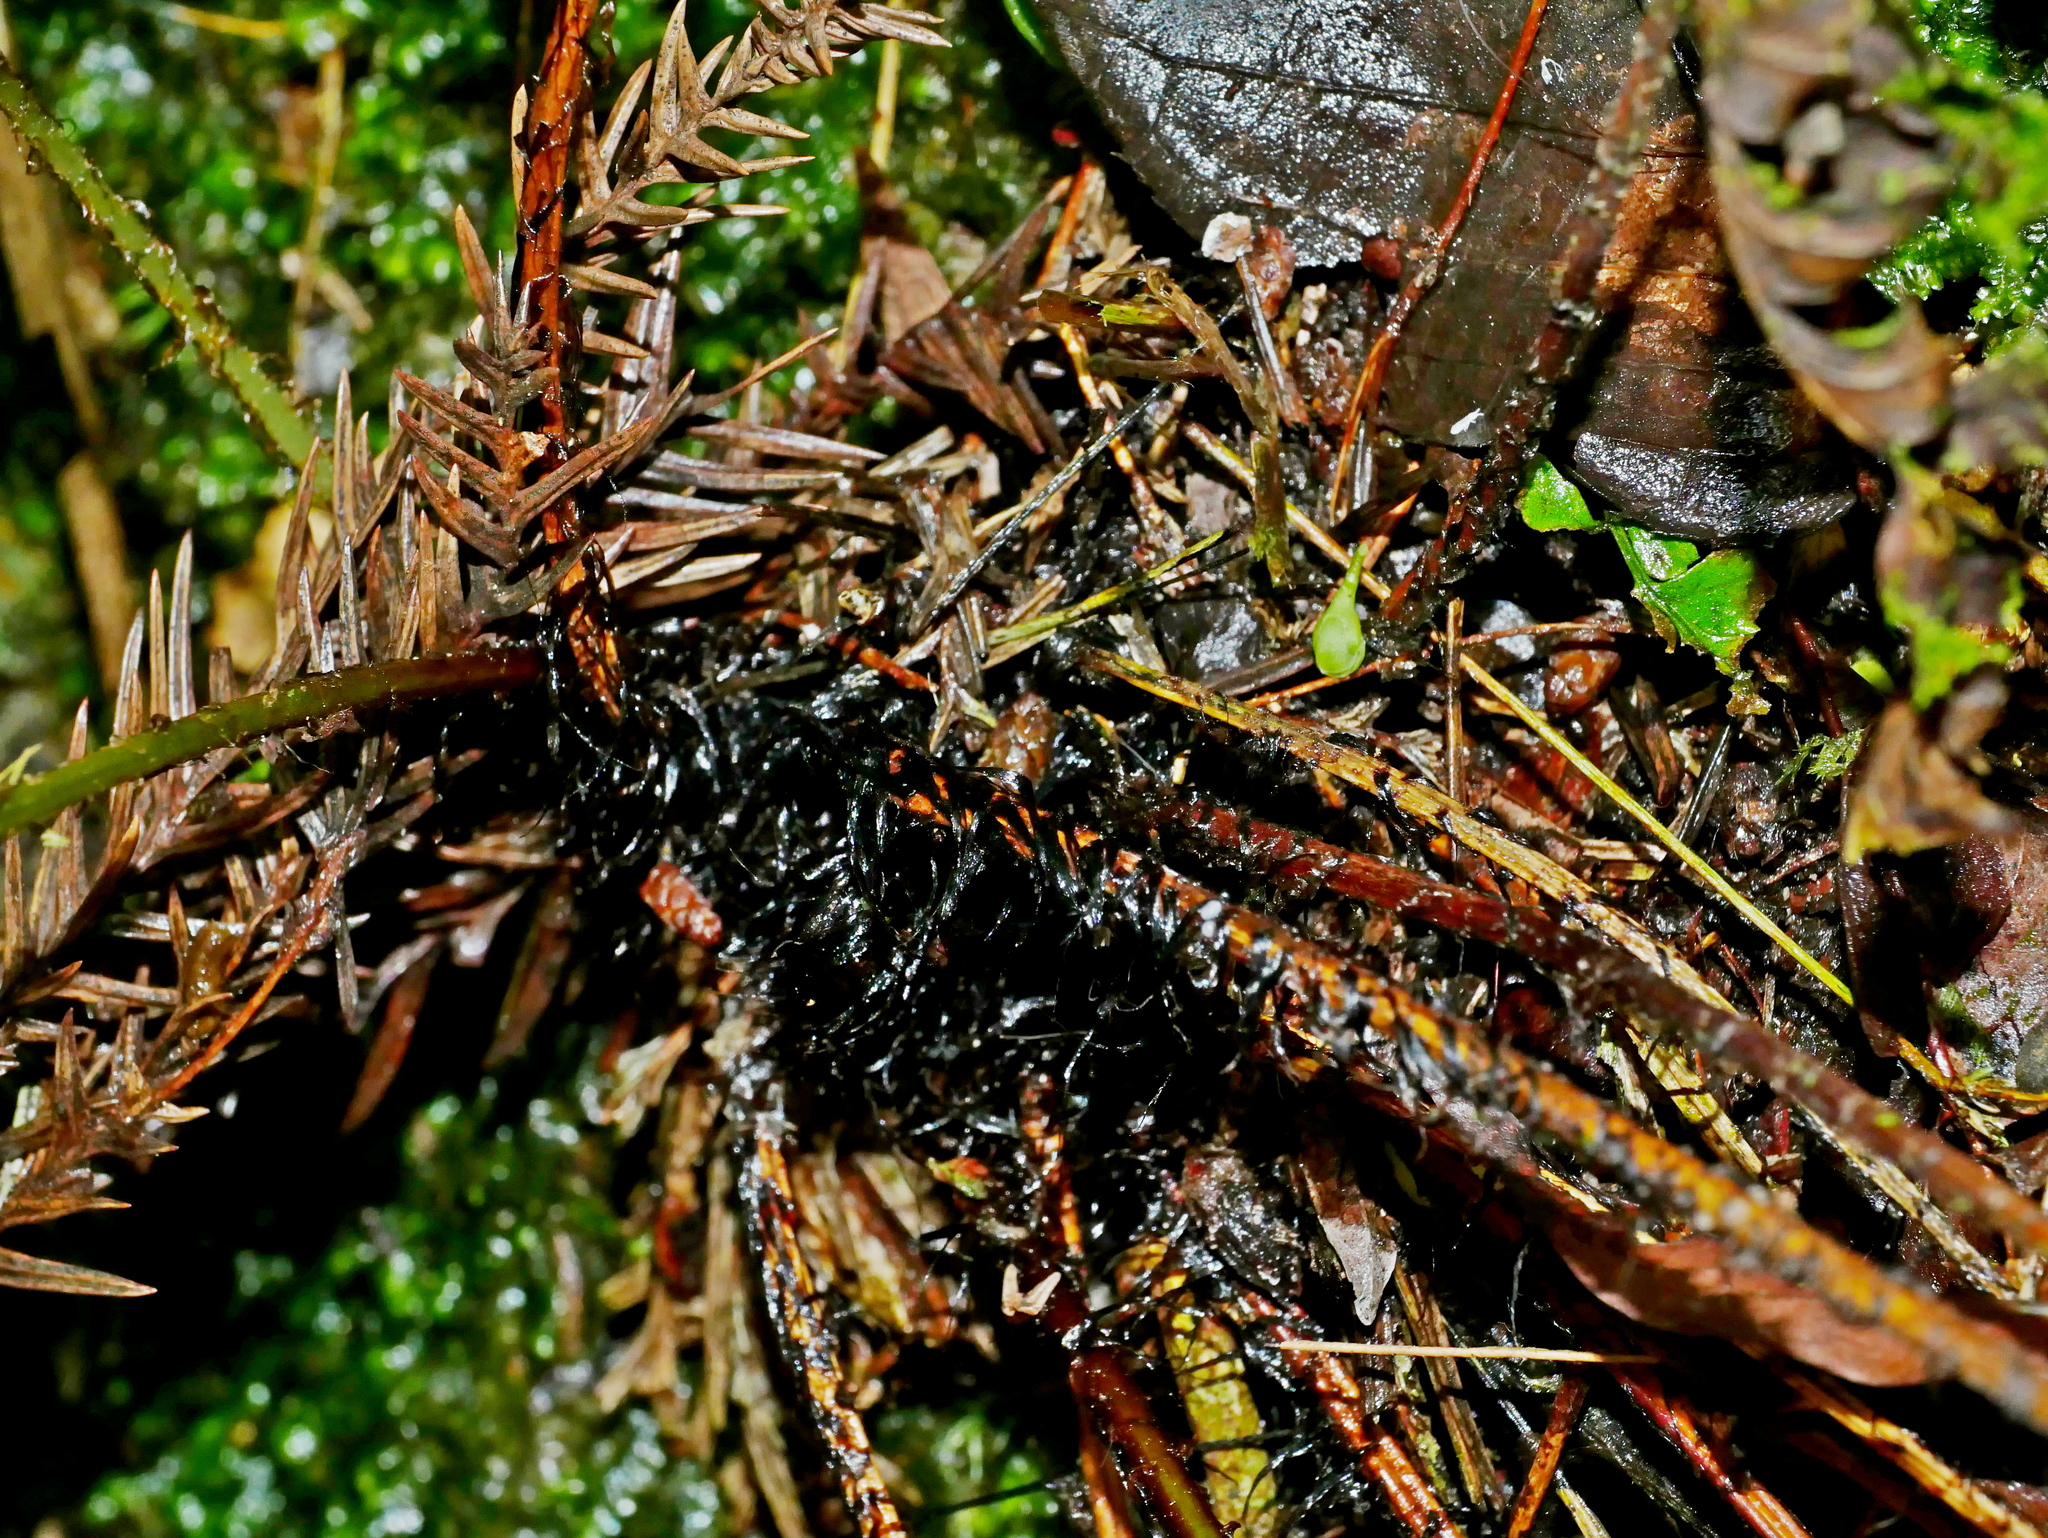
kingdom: Plantae
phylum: Tracheophyta
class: Polypodiopsida
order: Polypodiales
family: Dryopteridaceae
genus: Dryopteris
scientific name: Dryopteris subtriangularis
